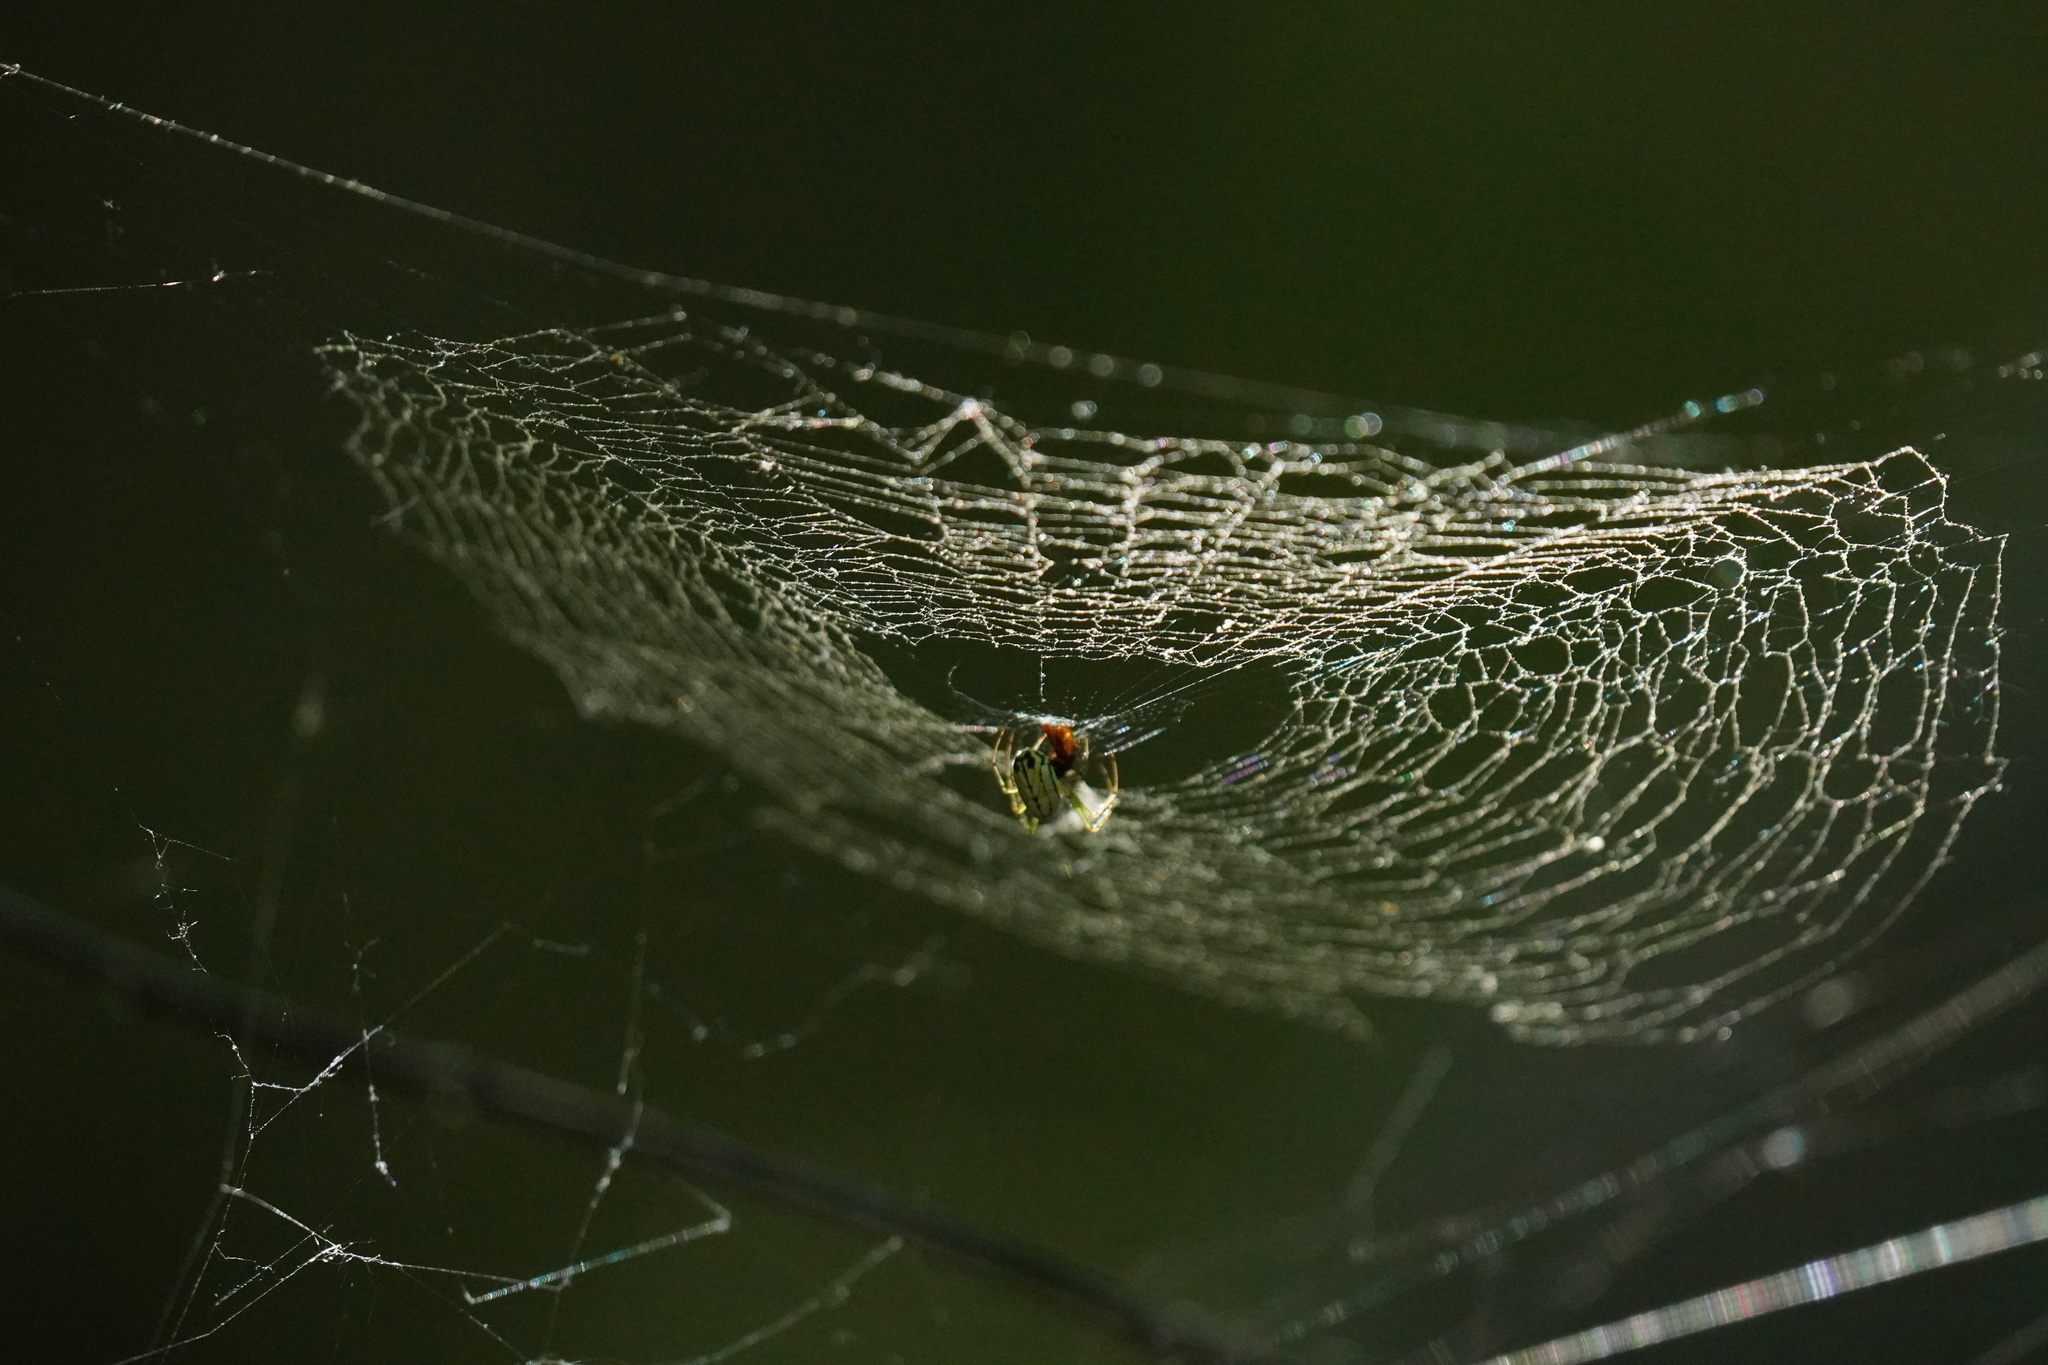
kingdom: Animalia
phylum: Arthropoda
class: Arachnida
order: Araneae
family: Tetragnathidae
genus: Leucauge
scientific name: Leucauge venusta
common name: Longjawed orb weavers
